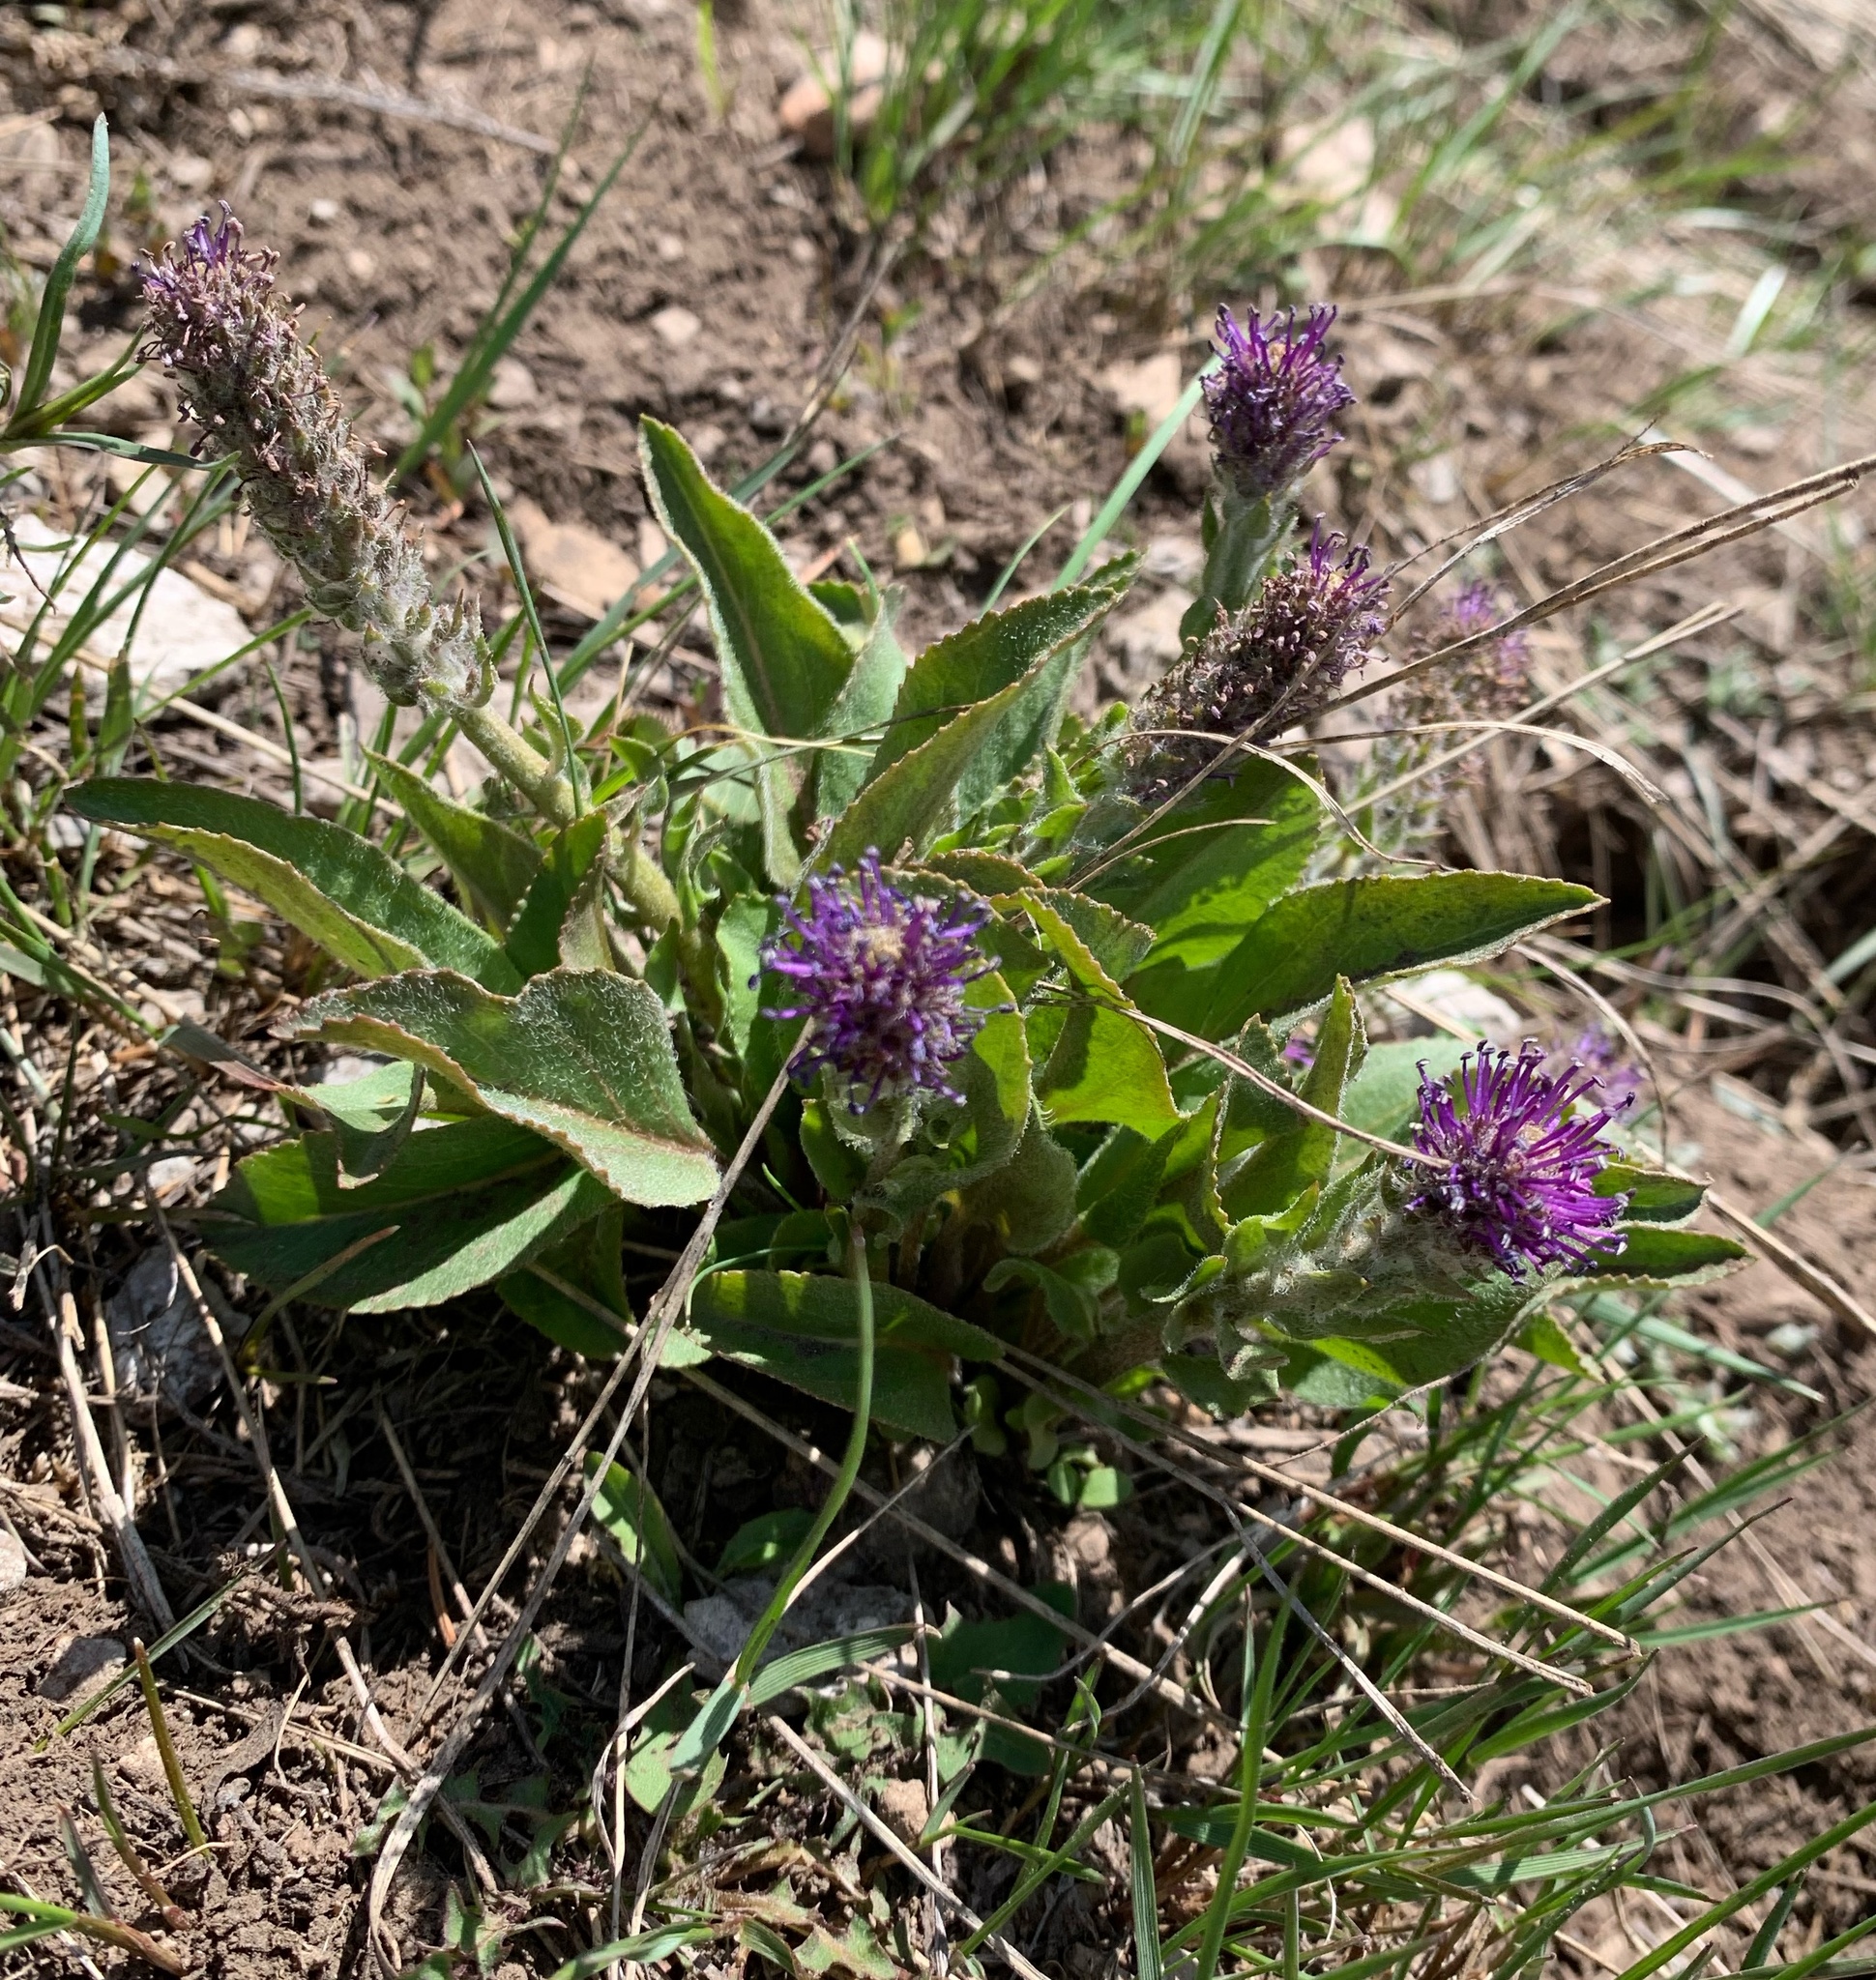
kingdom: Plantae
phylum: Tracheophyta
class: Magnoliopsida
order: Lamiales
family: Plantaginaceae
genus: Synthyris
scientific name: Synthyris wyomingensis
